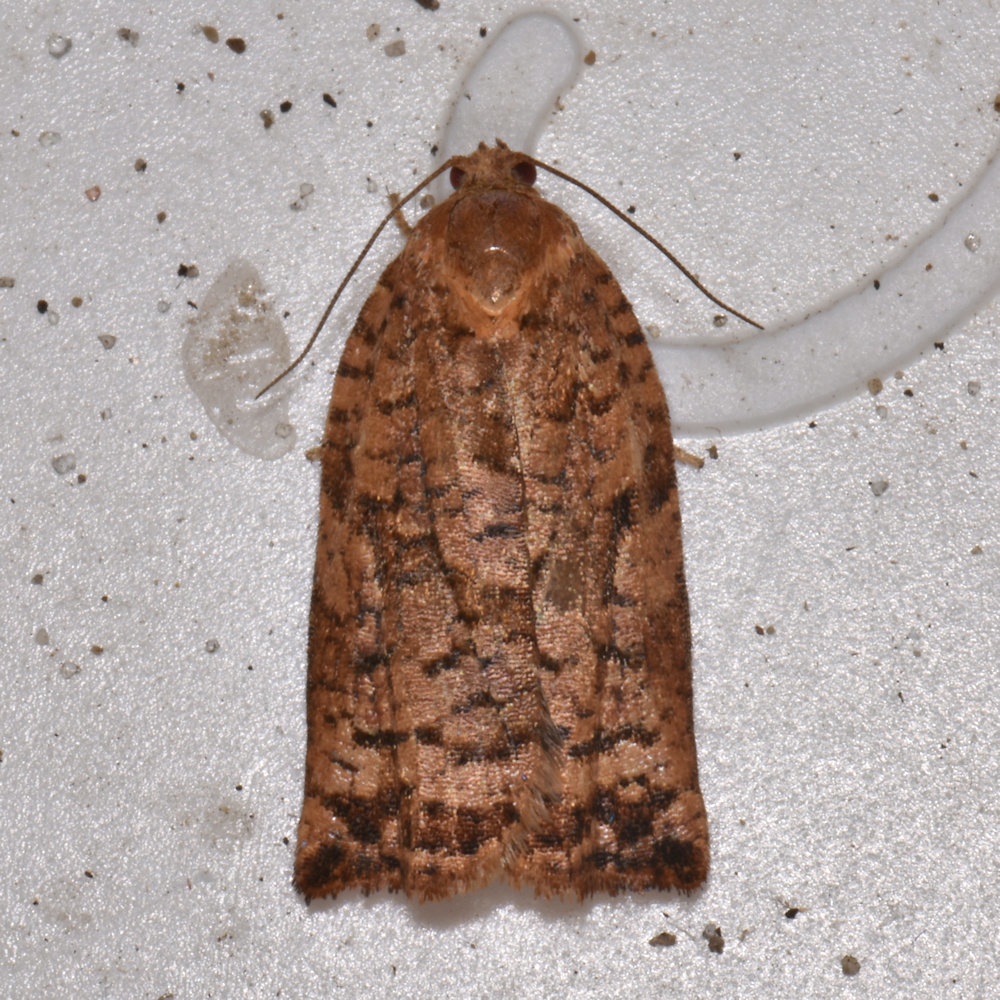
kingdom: Animalia
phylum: Arthropoda
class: Insecta
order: Lepidoptera
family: Tortricidae
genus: Choristoneura
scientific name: Choristoneura fumiferana
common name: Spruce budworm
